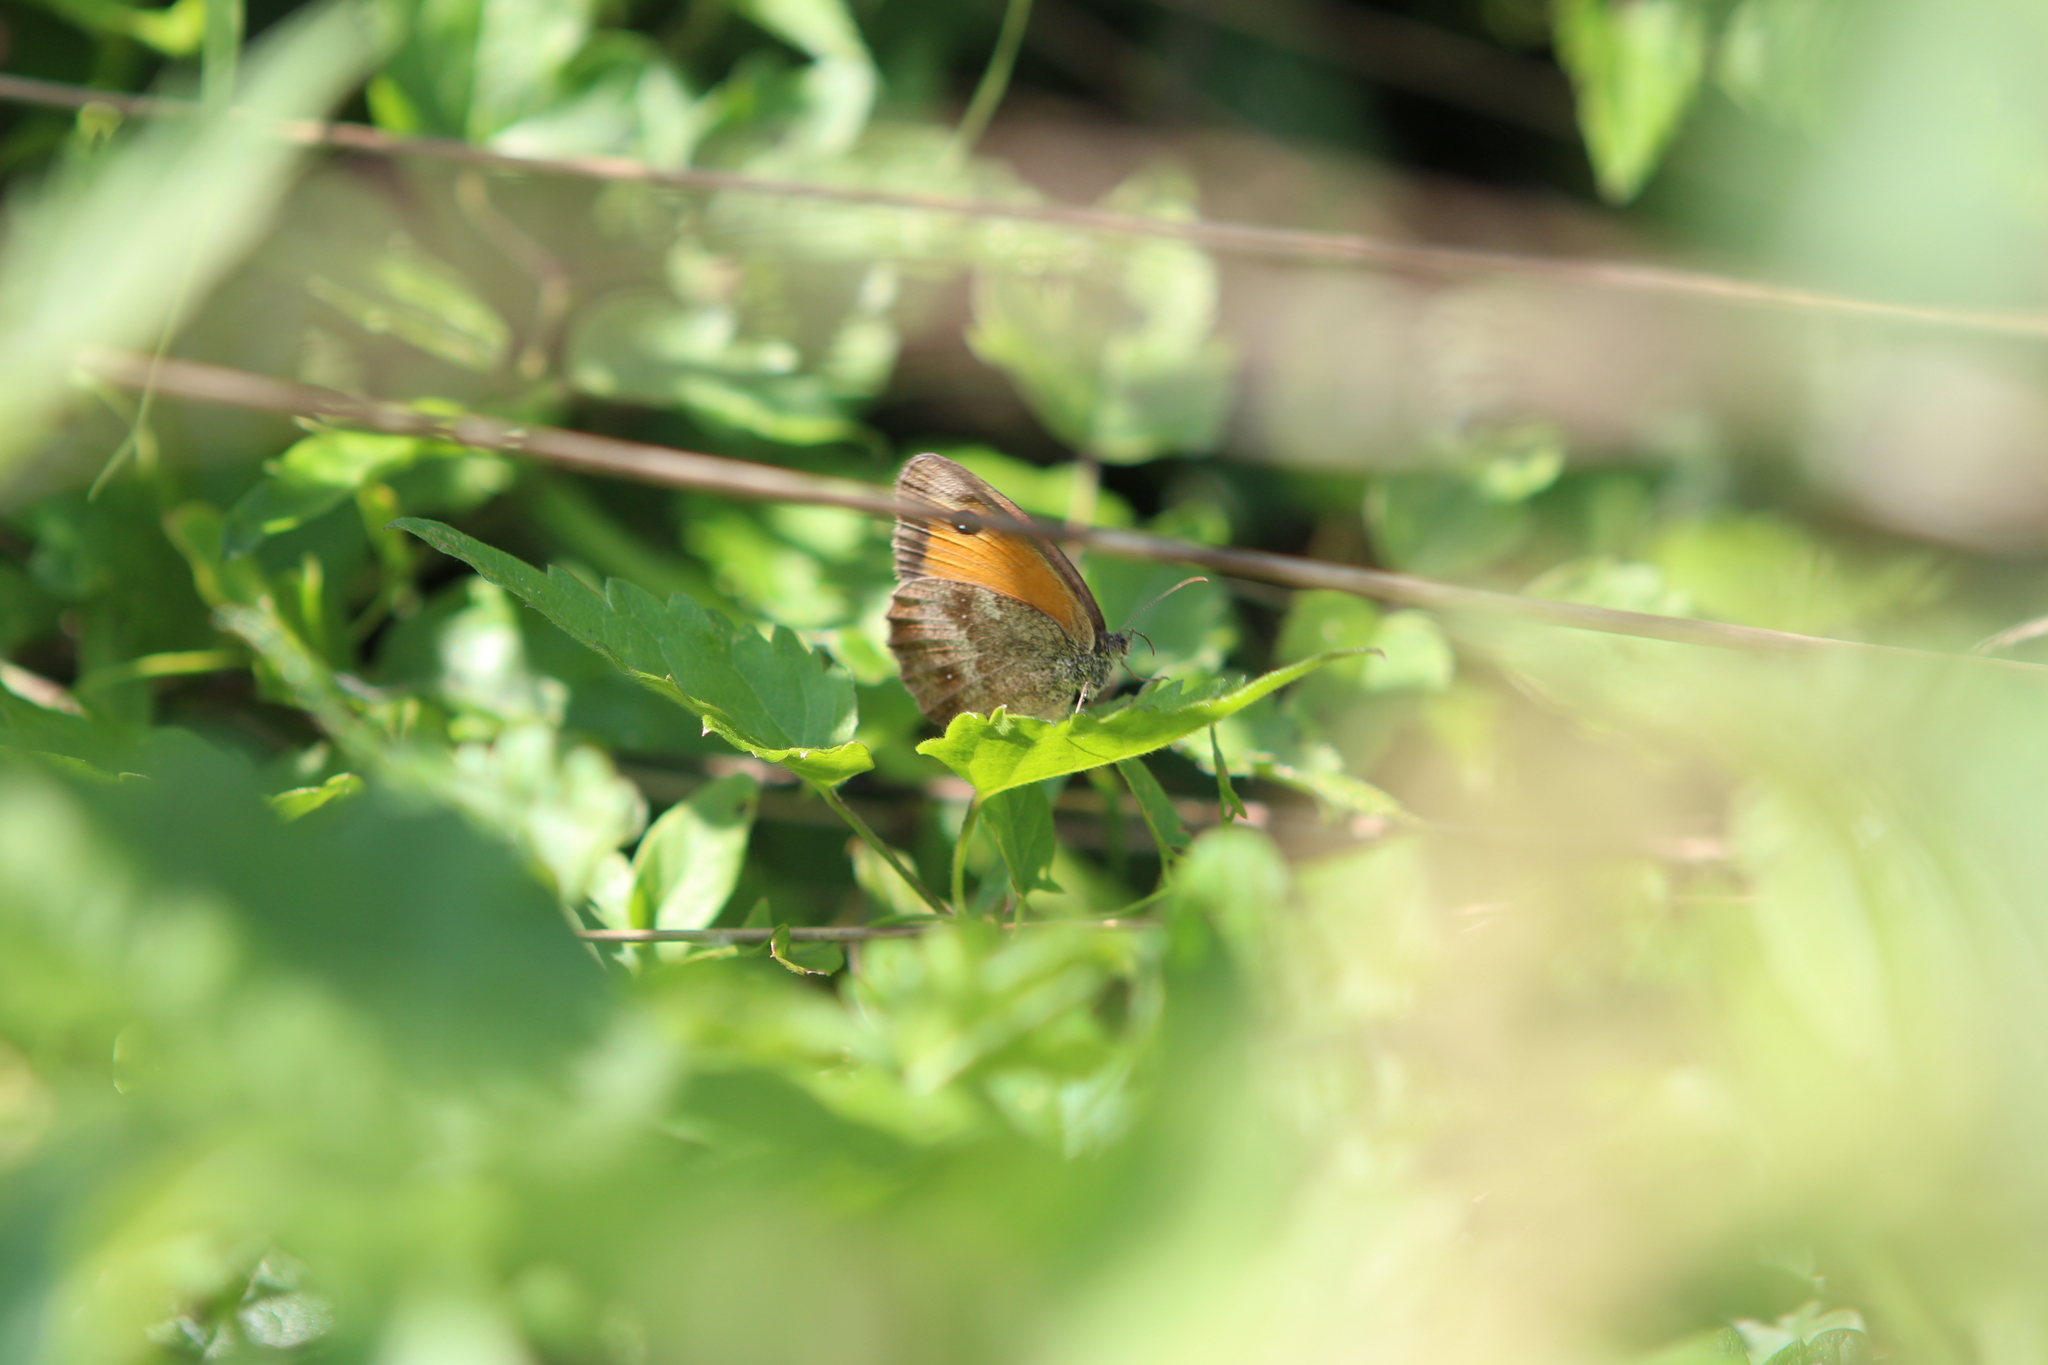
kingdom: Animalia
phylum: Arthropoda
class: Insecta
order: Lepidoptera
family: Nymphalidae
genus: Pyronia
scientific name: Pyronia tithonus
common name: Gatekeeper
